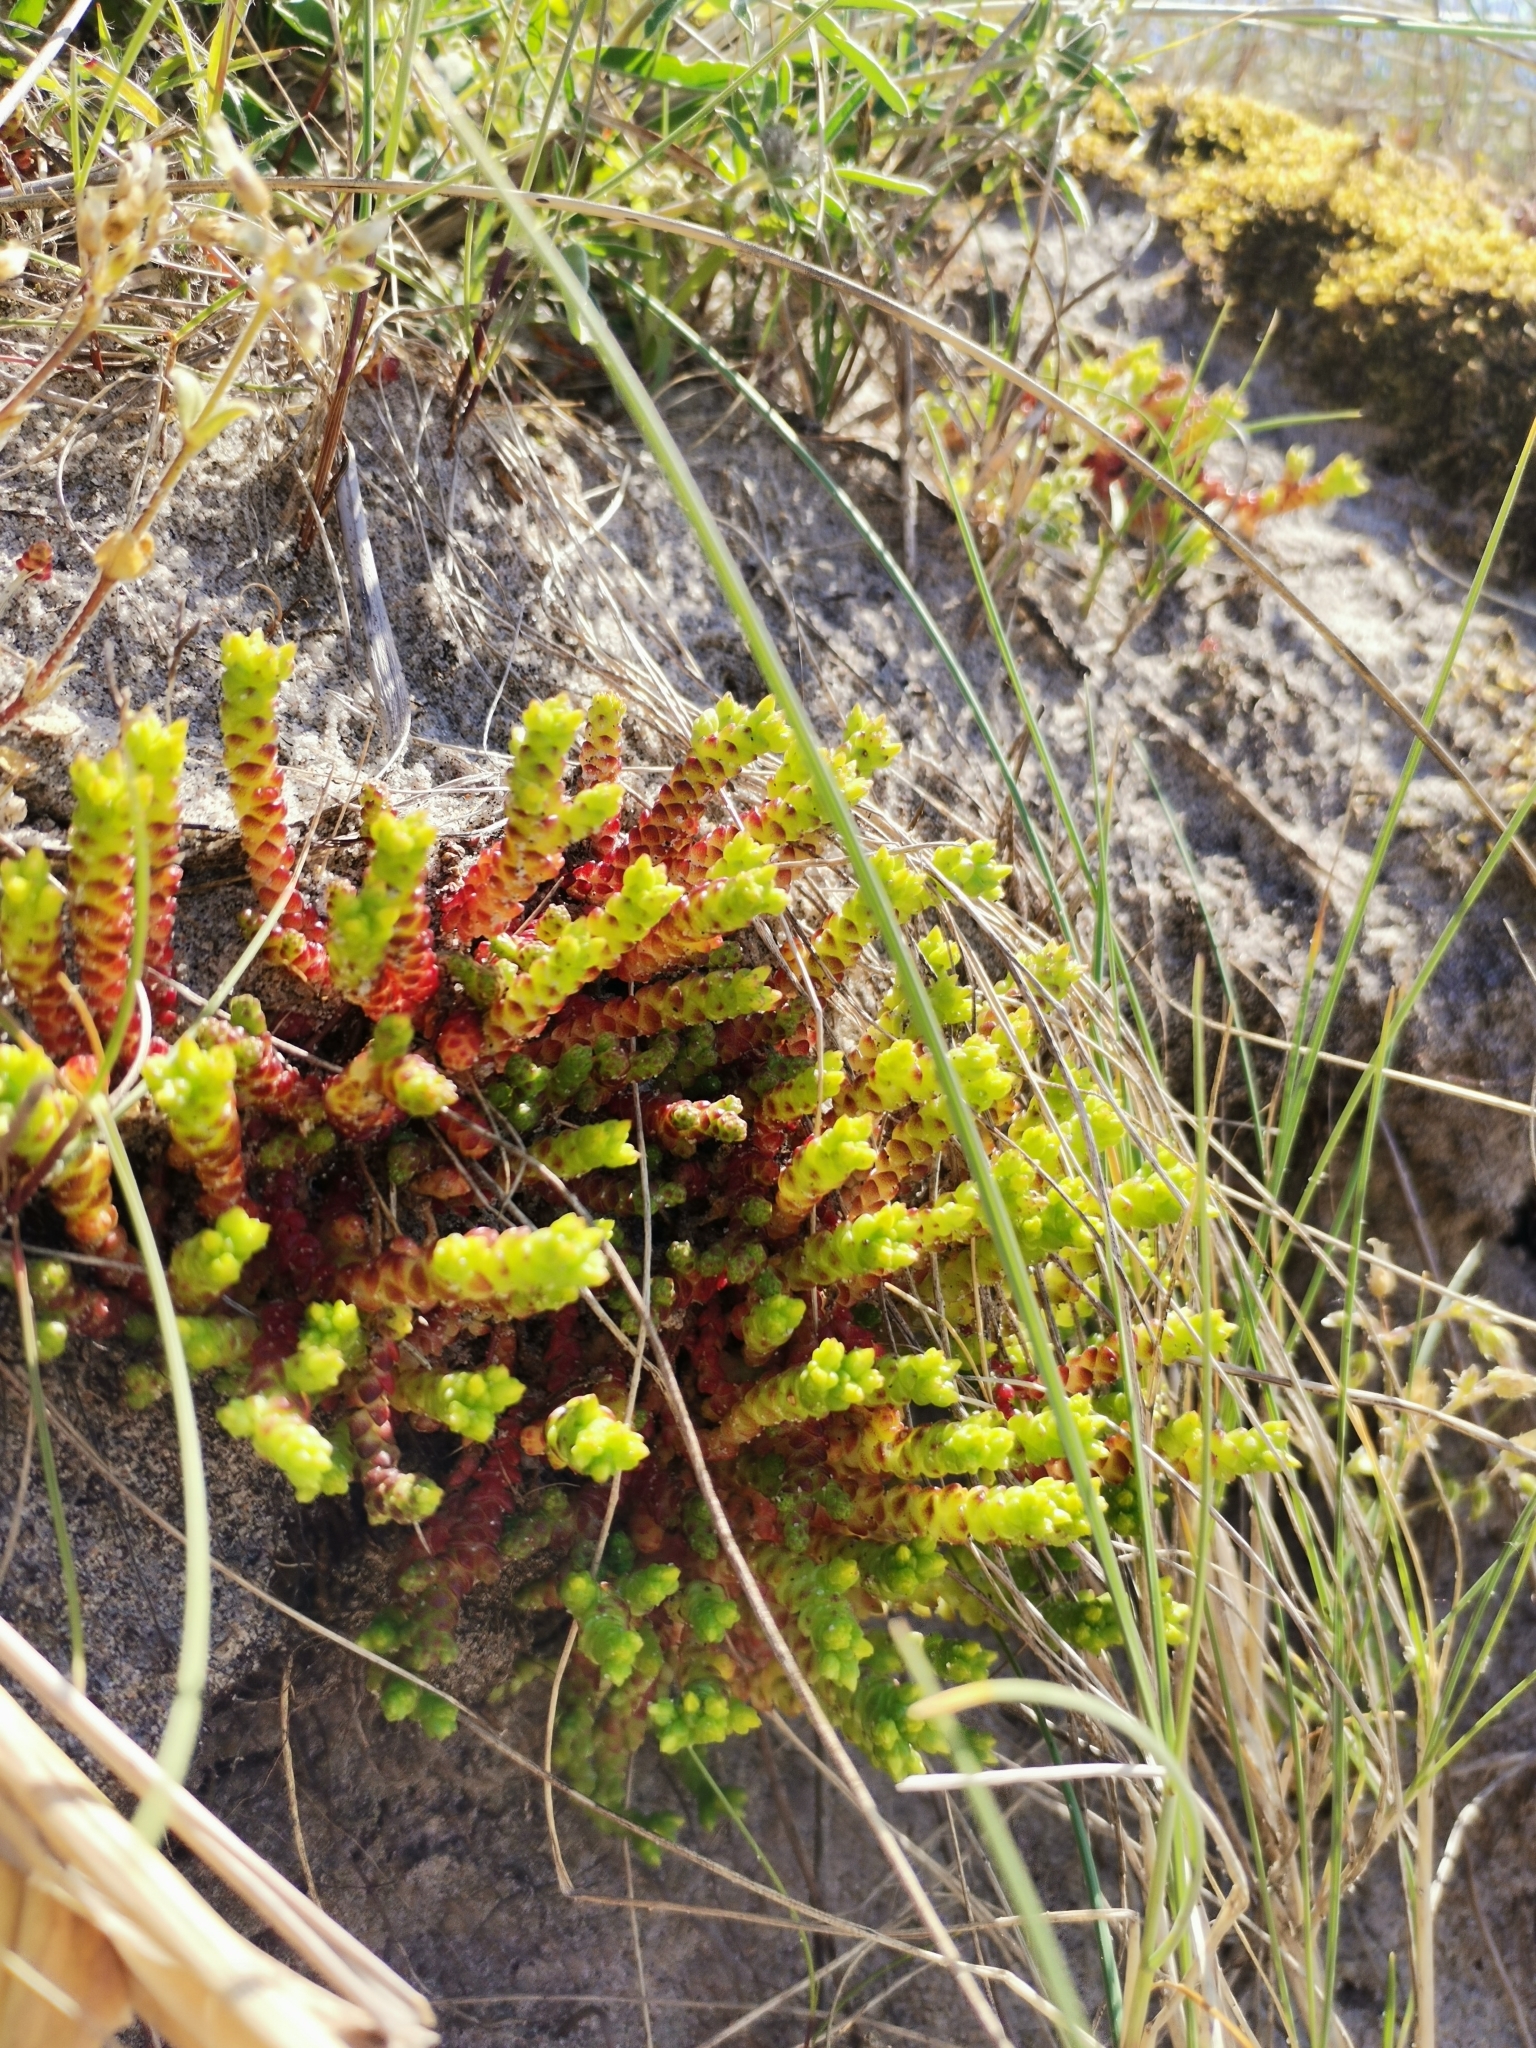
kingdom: Plantae
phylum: Tracheophyta
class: Magnoliopsida
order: Saxifragales
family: Crassulaceae
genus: Sedum
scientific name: Sedum acre
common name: Biting stonecrop
